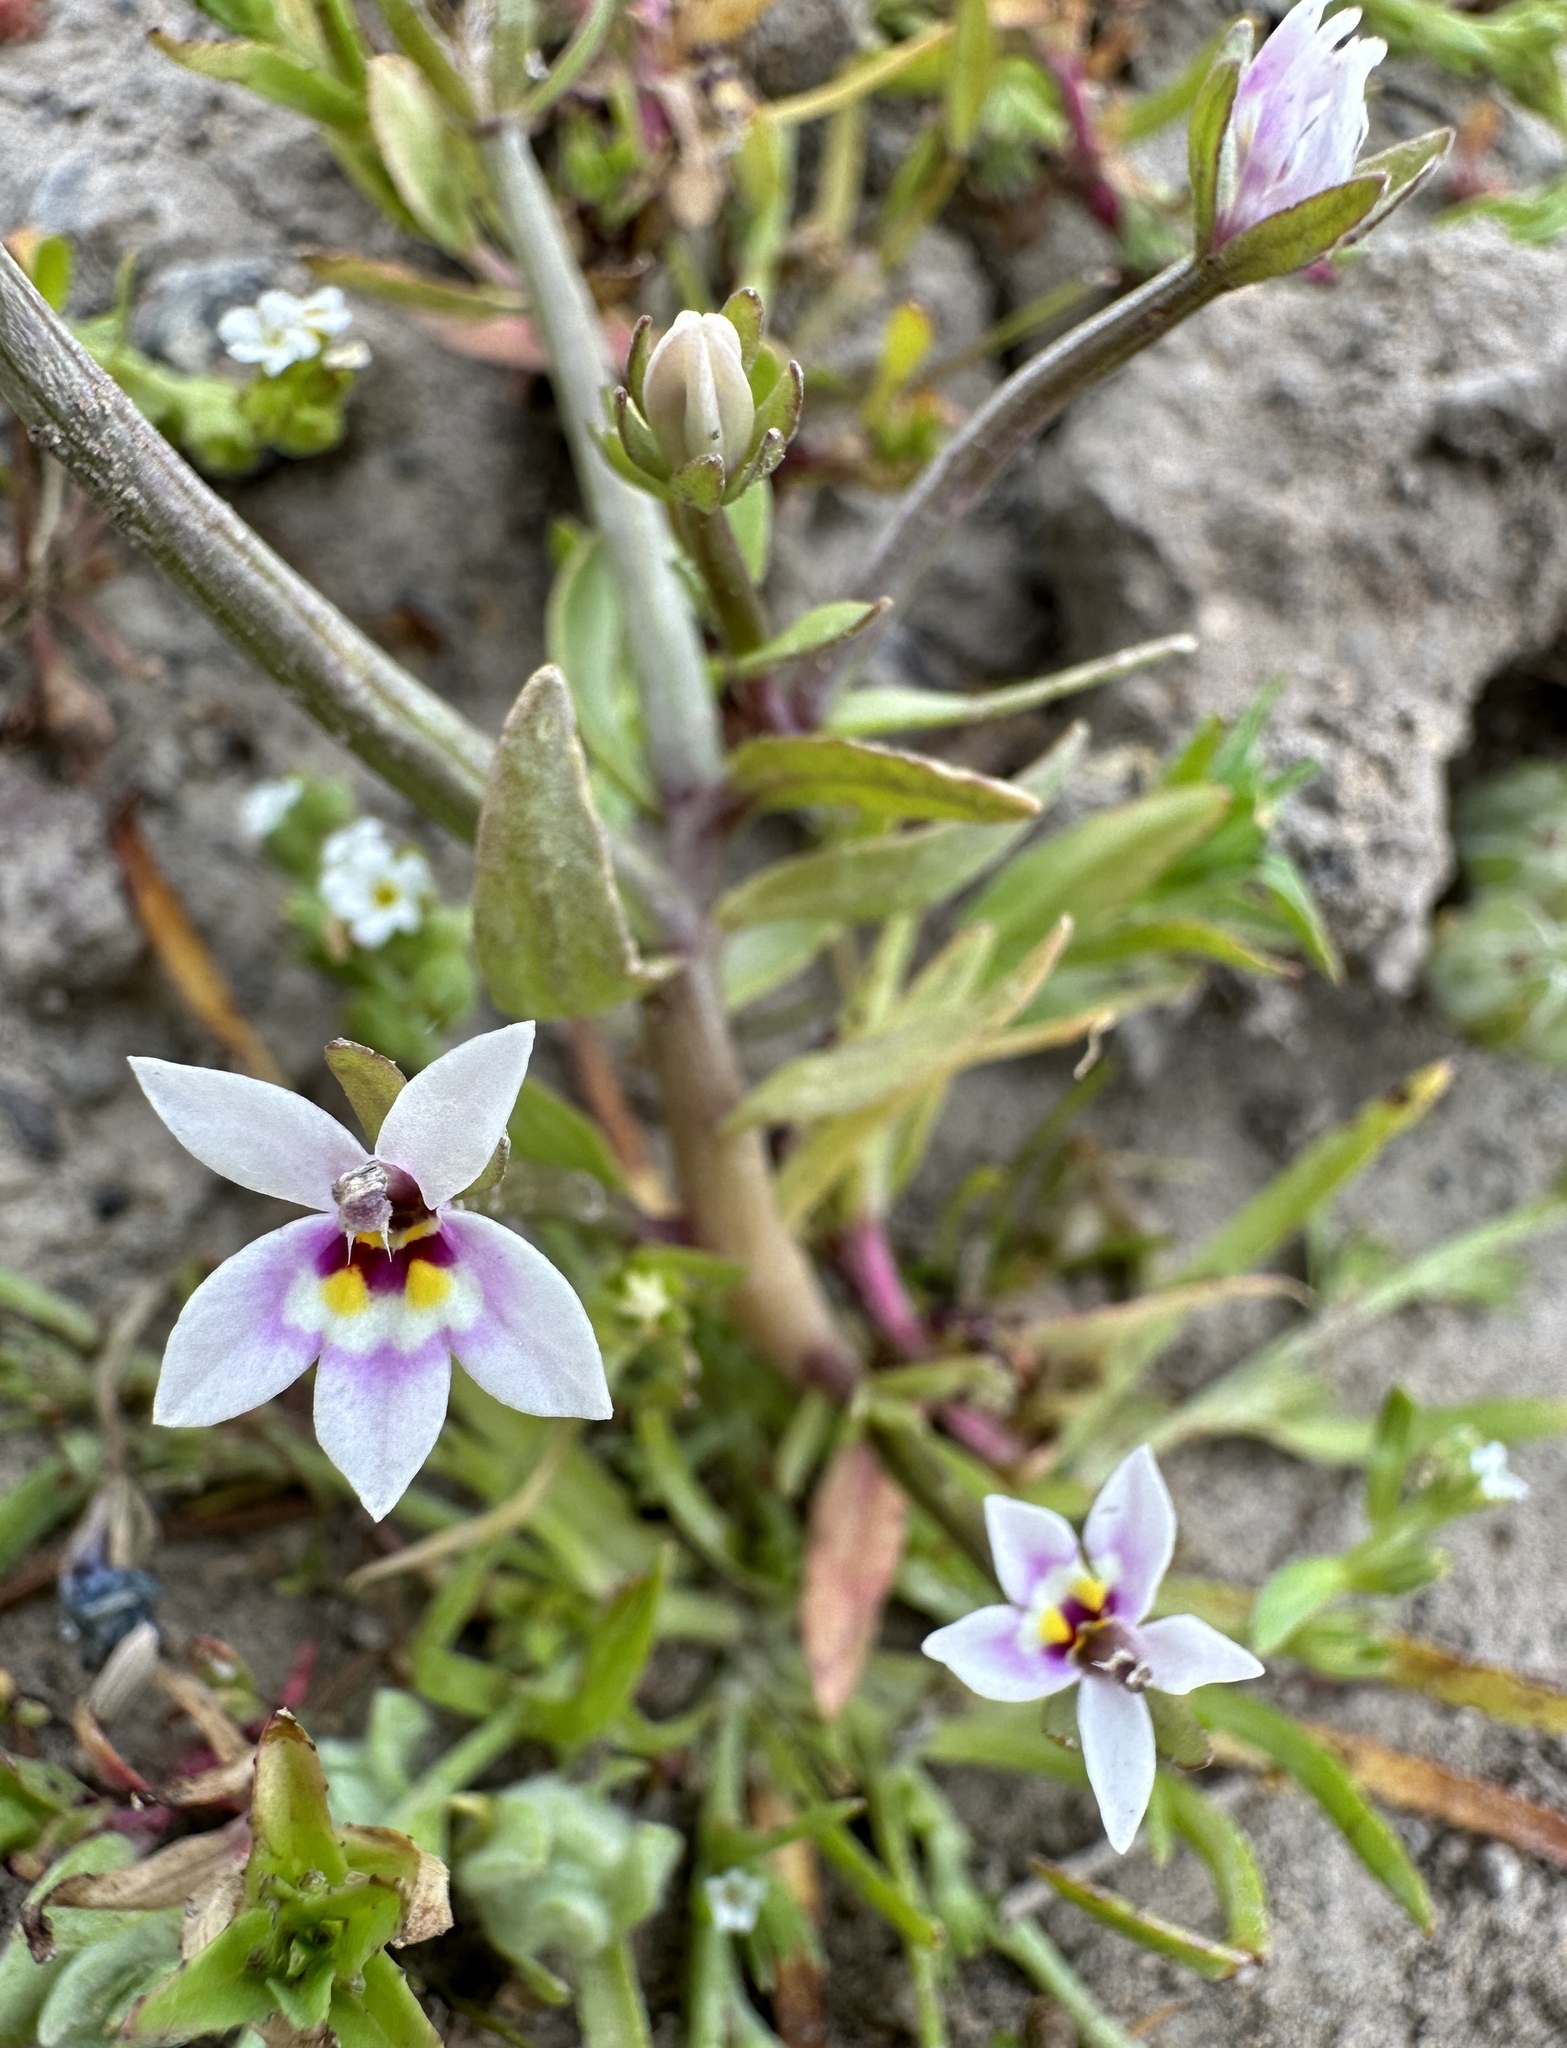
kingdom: Plantae
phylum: Tracheophyta
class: Magnoliopsida
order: Asterales
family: Campanulaceae
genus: Downingia
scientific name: Downingia laeta
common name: Great basin calicoflower
